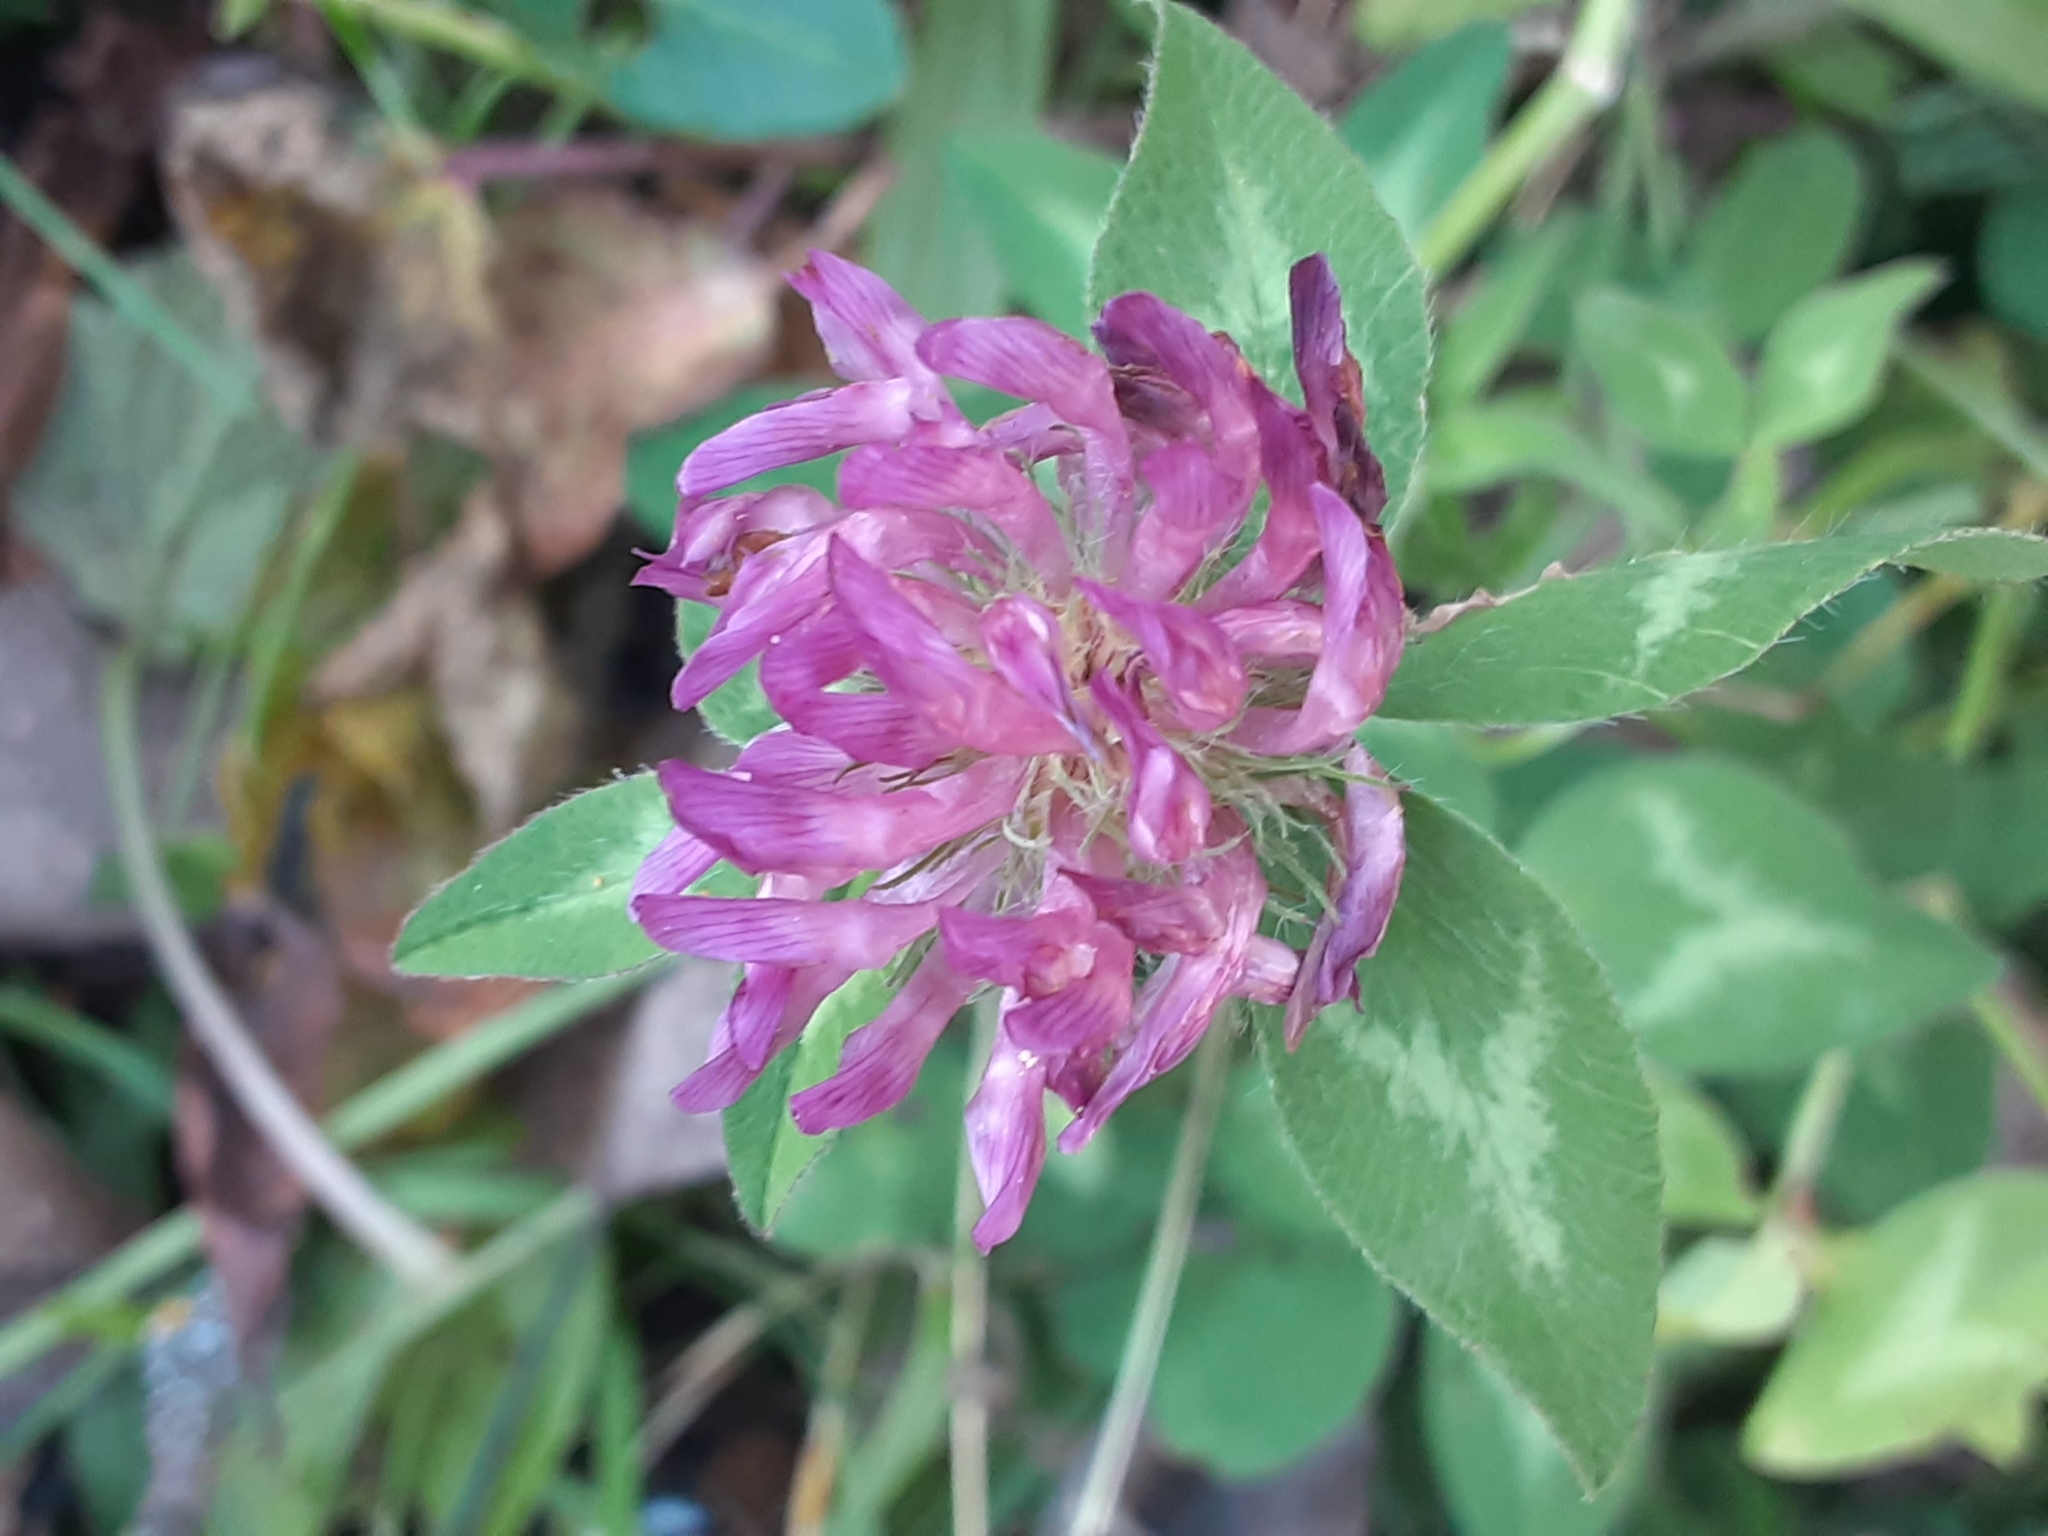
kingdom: Plantae
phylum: Tracheophyta
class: Magnoliopsida
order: Fabales
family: Fabaceae
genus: Trifolium
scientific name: Trifolium pratense
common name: Red clover
